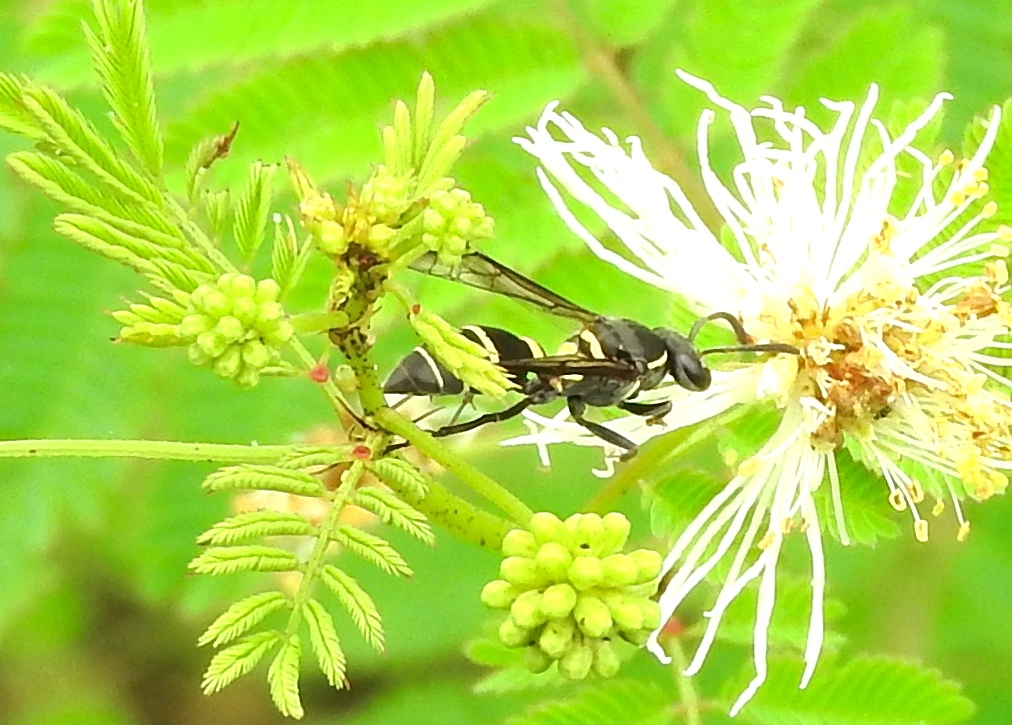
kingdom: Animalia
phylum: Arthropoda
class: Insecta
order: Hymenoptera
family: Vespidae
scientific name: Vespidae
